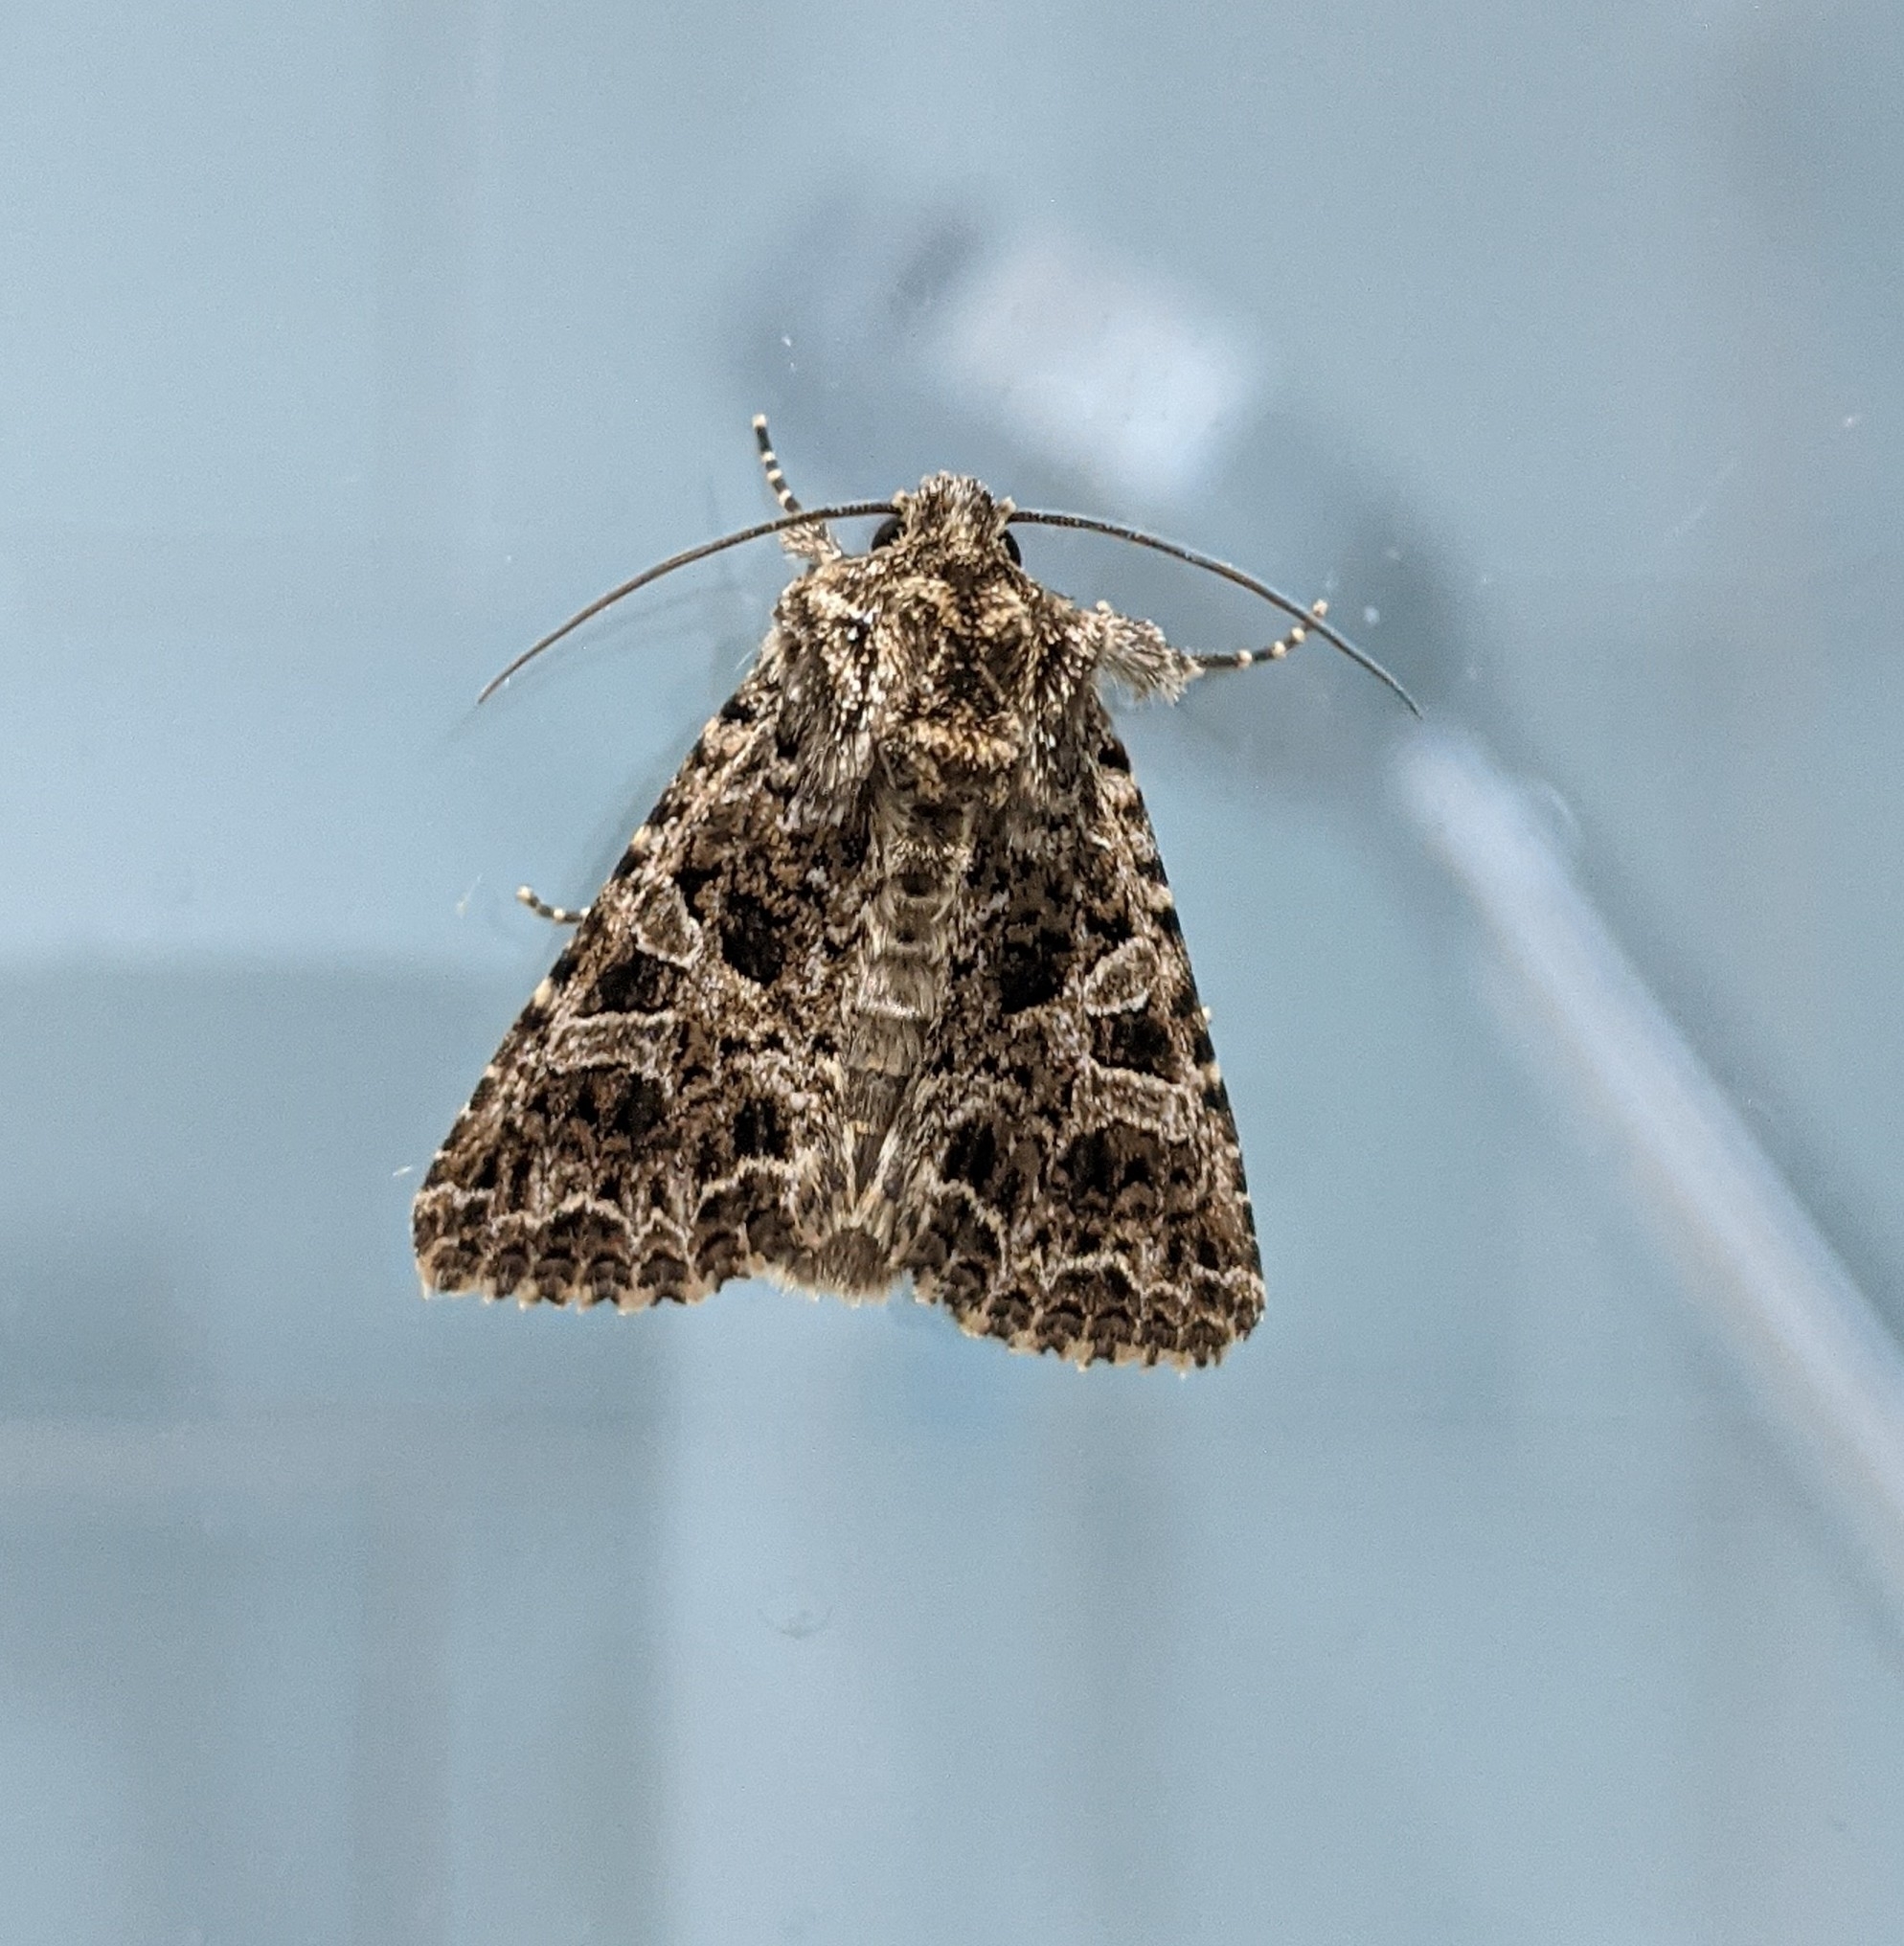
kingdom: Animalia
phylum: Arthropoda
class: Insecta
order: Lepidoptera
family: Noctuidae
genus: Sideridis
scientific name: Sideridis rivularis
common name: Campion
